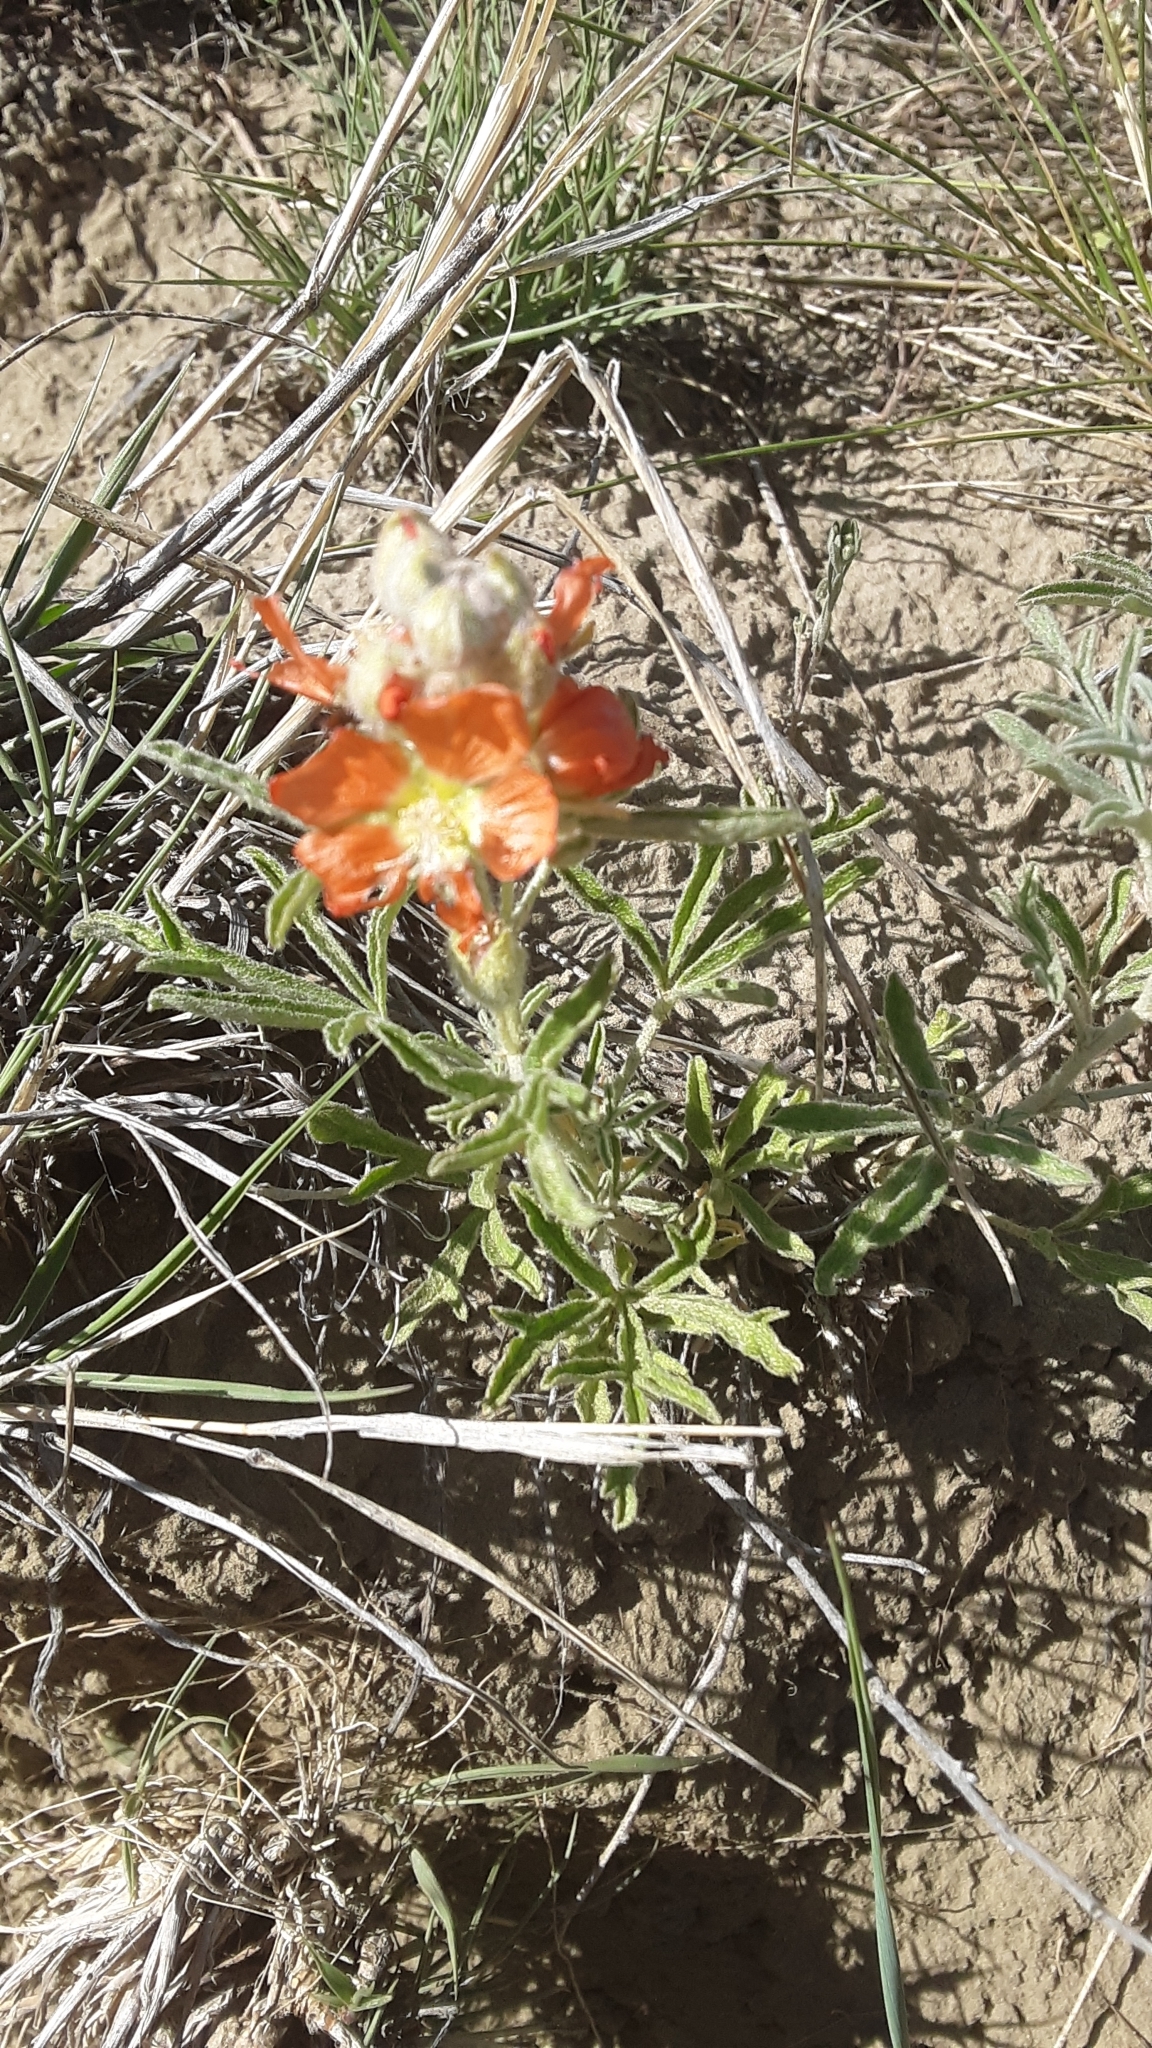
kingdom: Plantae
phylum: Tracheophyta
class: Magnoliopsida
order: Malvales
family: Malvaceae
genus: Sphaeralcea
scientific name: Sphaeralcea coccinea
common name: Moss-rose
